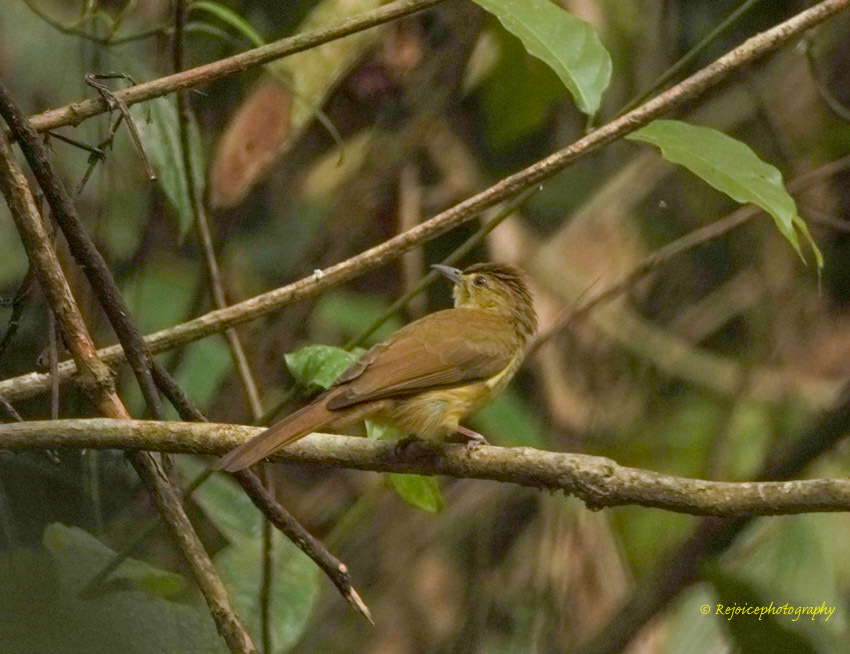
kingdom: Animalia
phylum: Chordata
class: Aves
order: Passeriformes
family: Pycnonotidae
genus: Iole
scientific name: Iole virescens
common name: Olive bulbul
